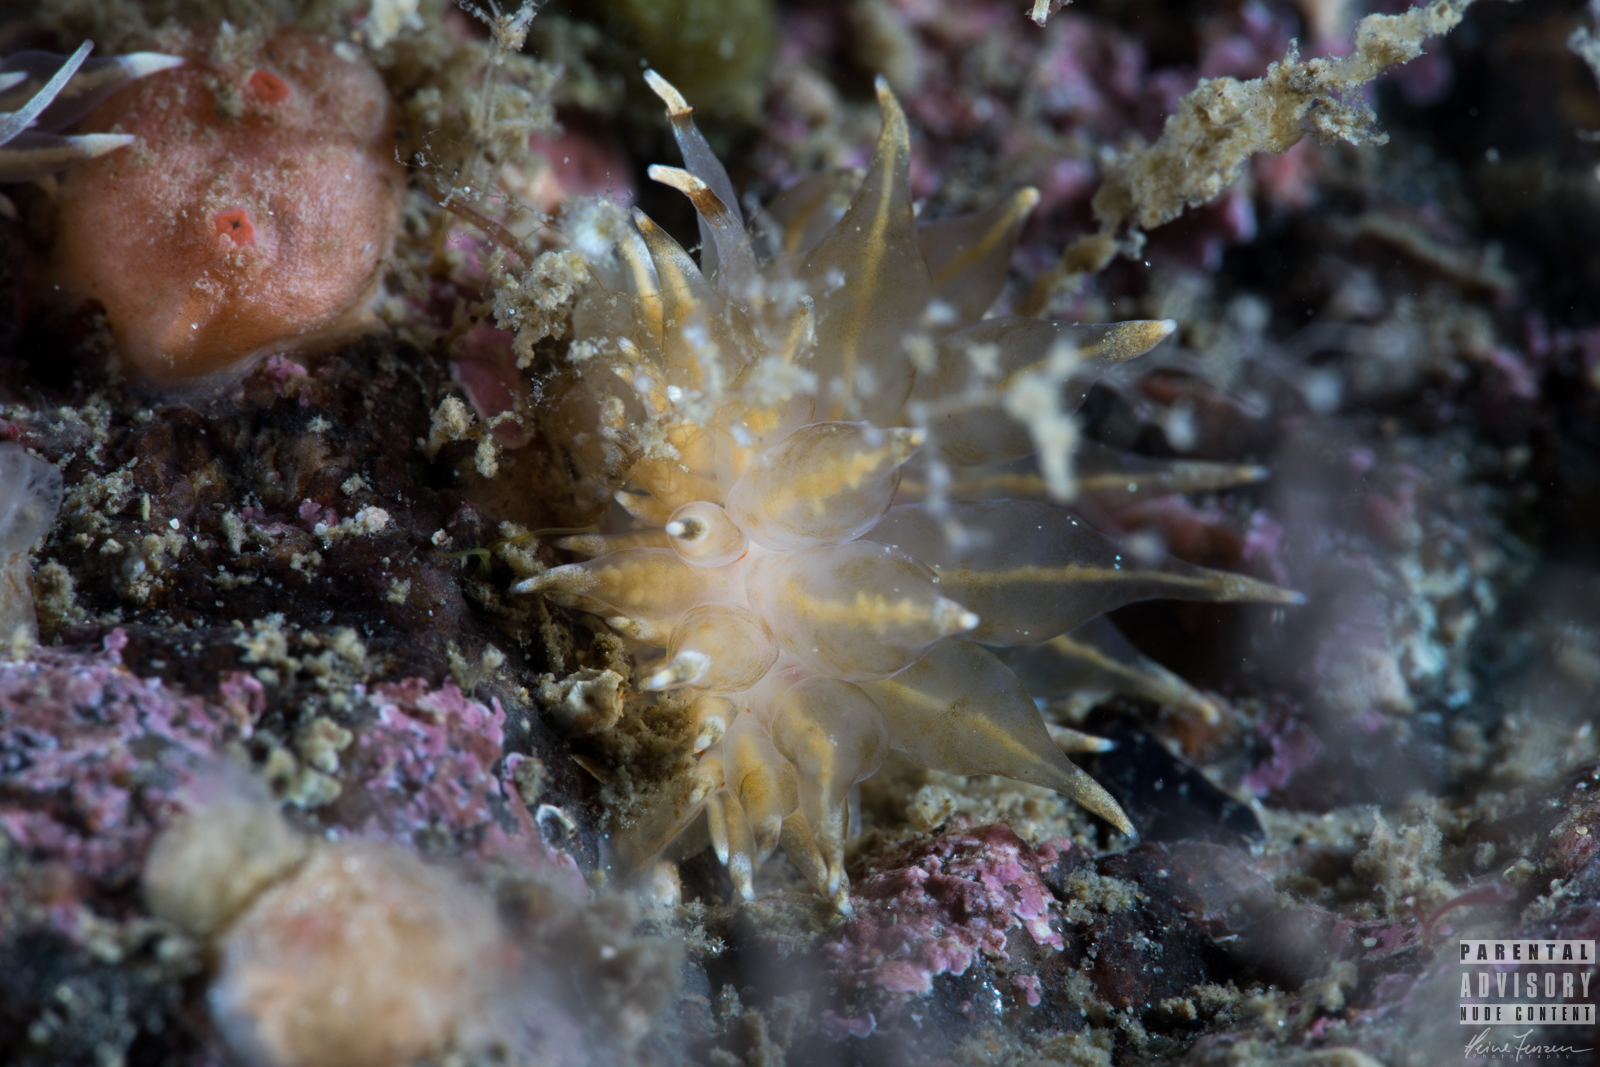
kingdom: Animalia
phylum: Mollusca
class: Gastropoda
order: Nudibranchia
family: Eubranchidae
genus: Amphorina
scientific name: Amphorina linensis
